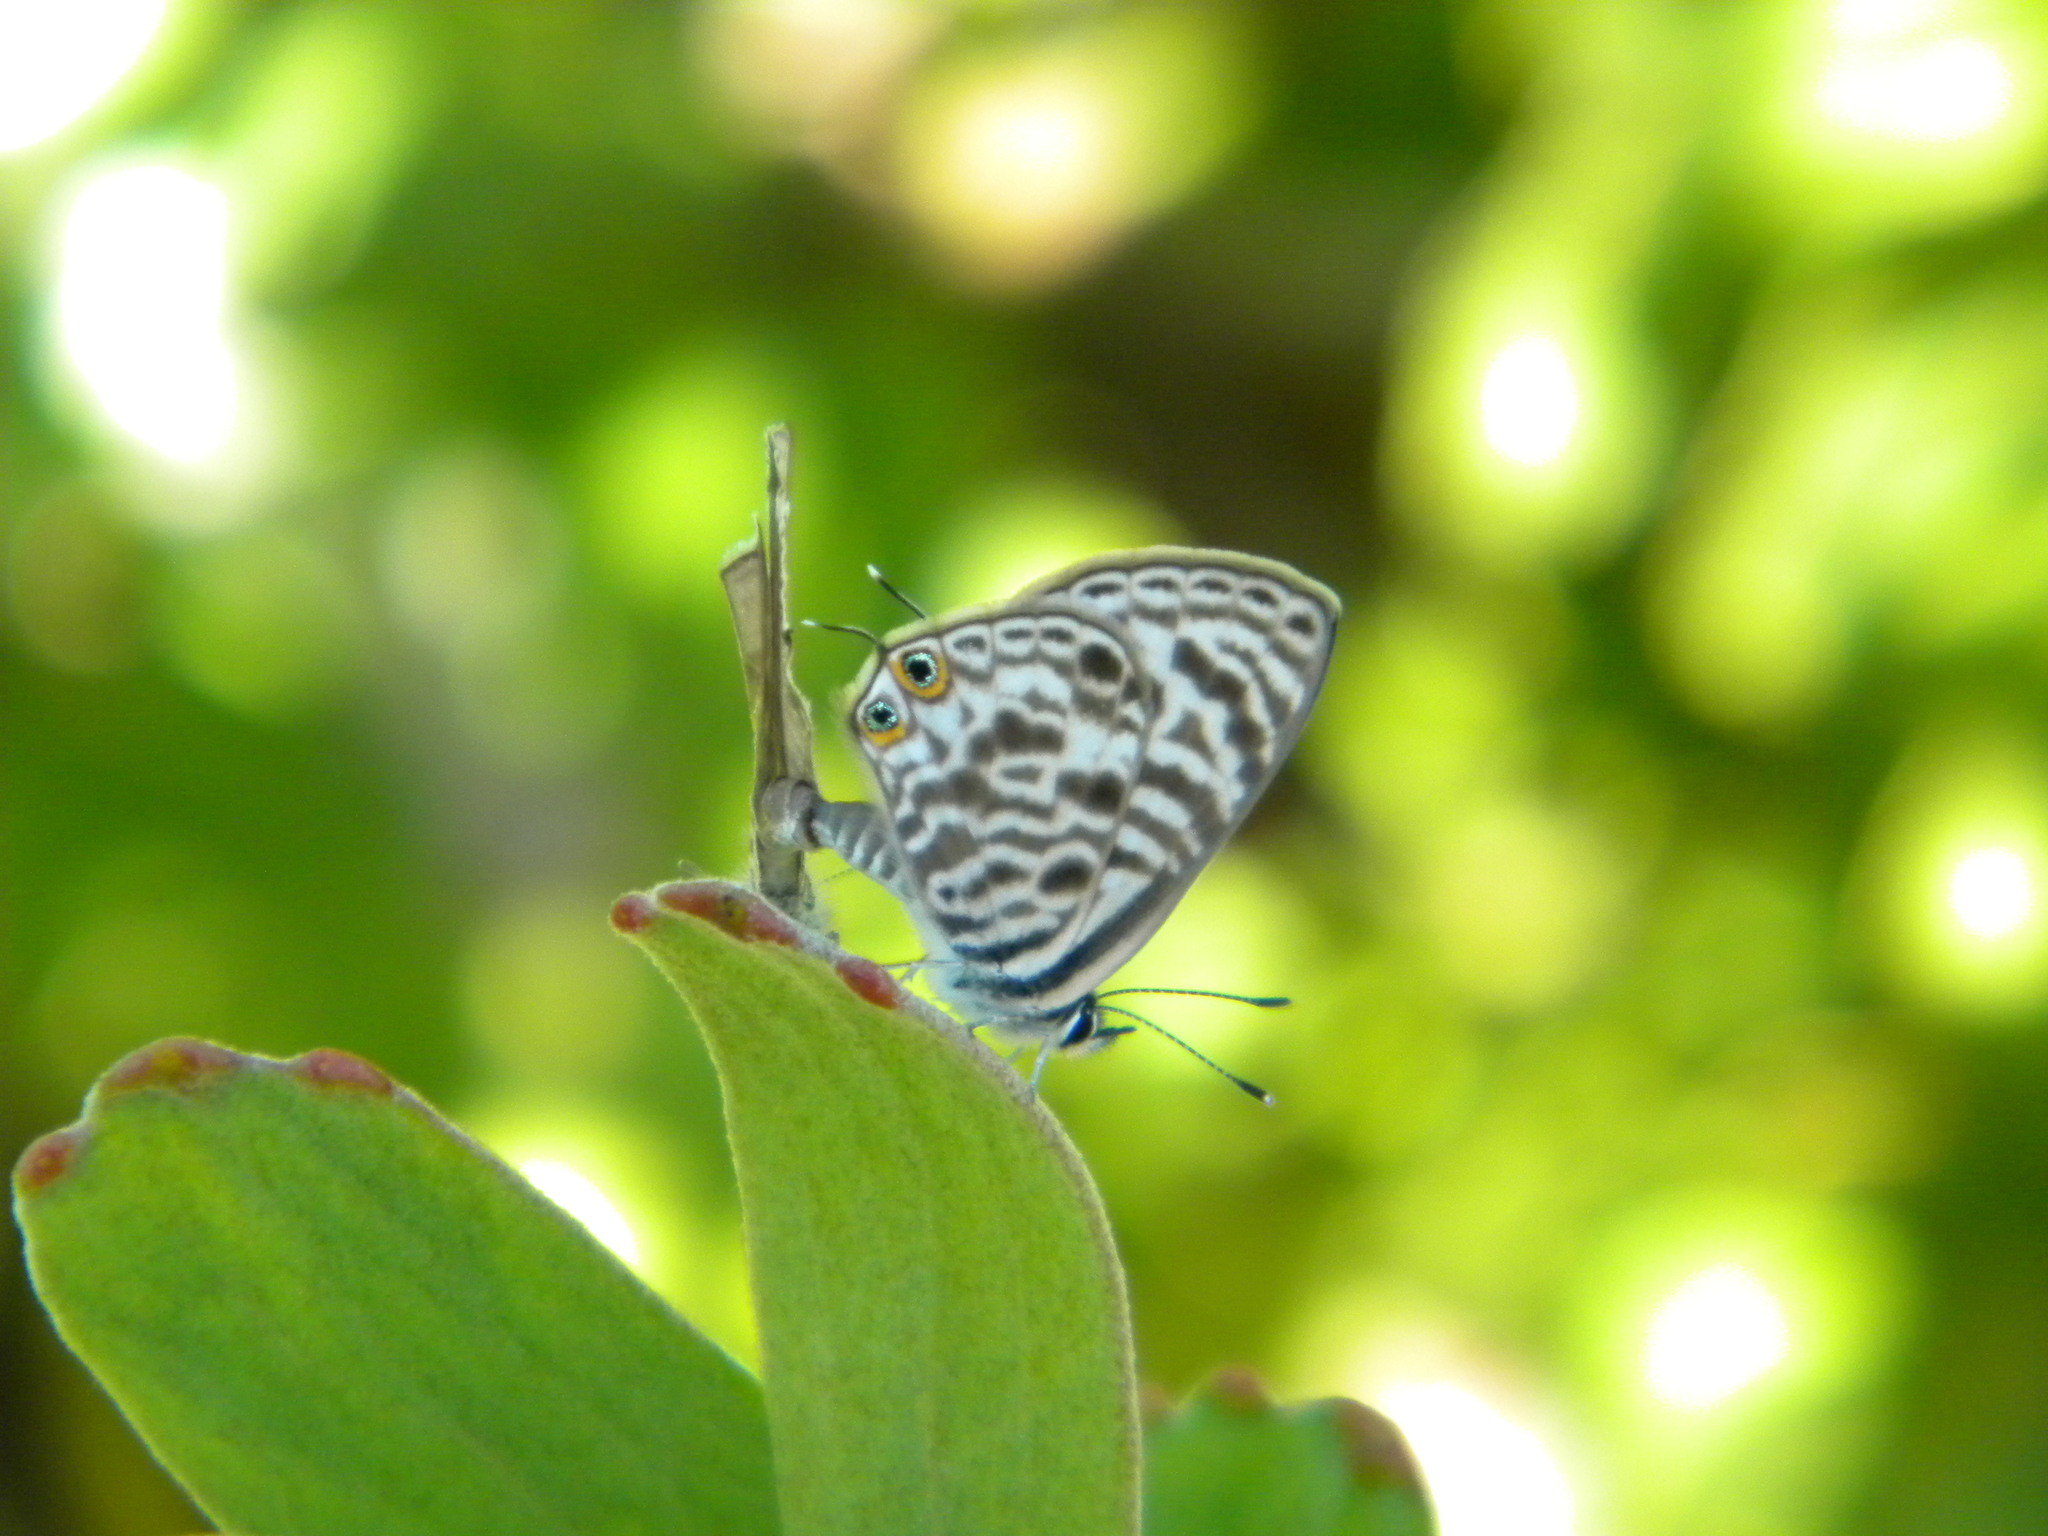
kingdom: Animalia
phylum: Arthropoda
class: Insecta
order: Lepidoptera
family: Lycaenidae
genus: Leptotes
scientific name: Leptotes
